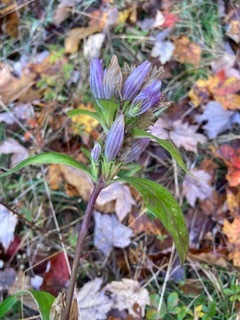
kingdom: Plantae
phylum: Tracheophyta
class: Magnoliopsida
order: Gentianales
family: Gentianaceae
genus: Gentiana
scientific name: Gentiana clausa
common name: Blind gentian
